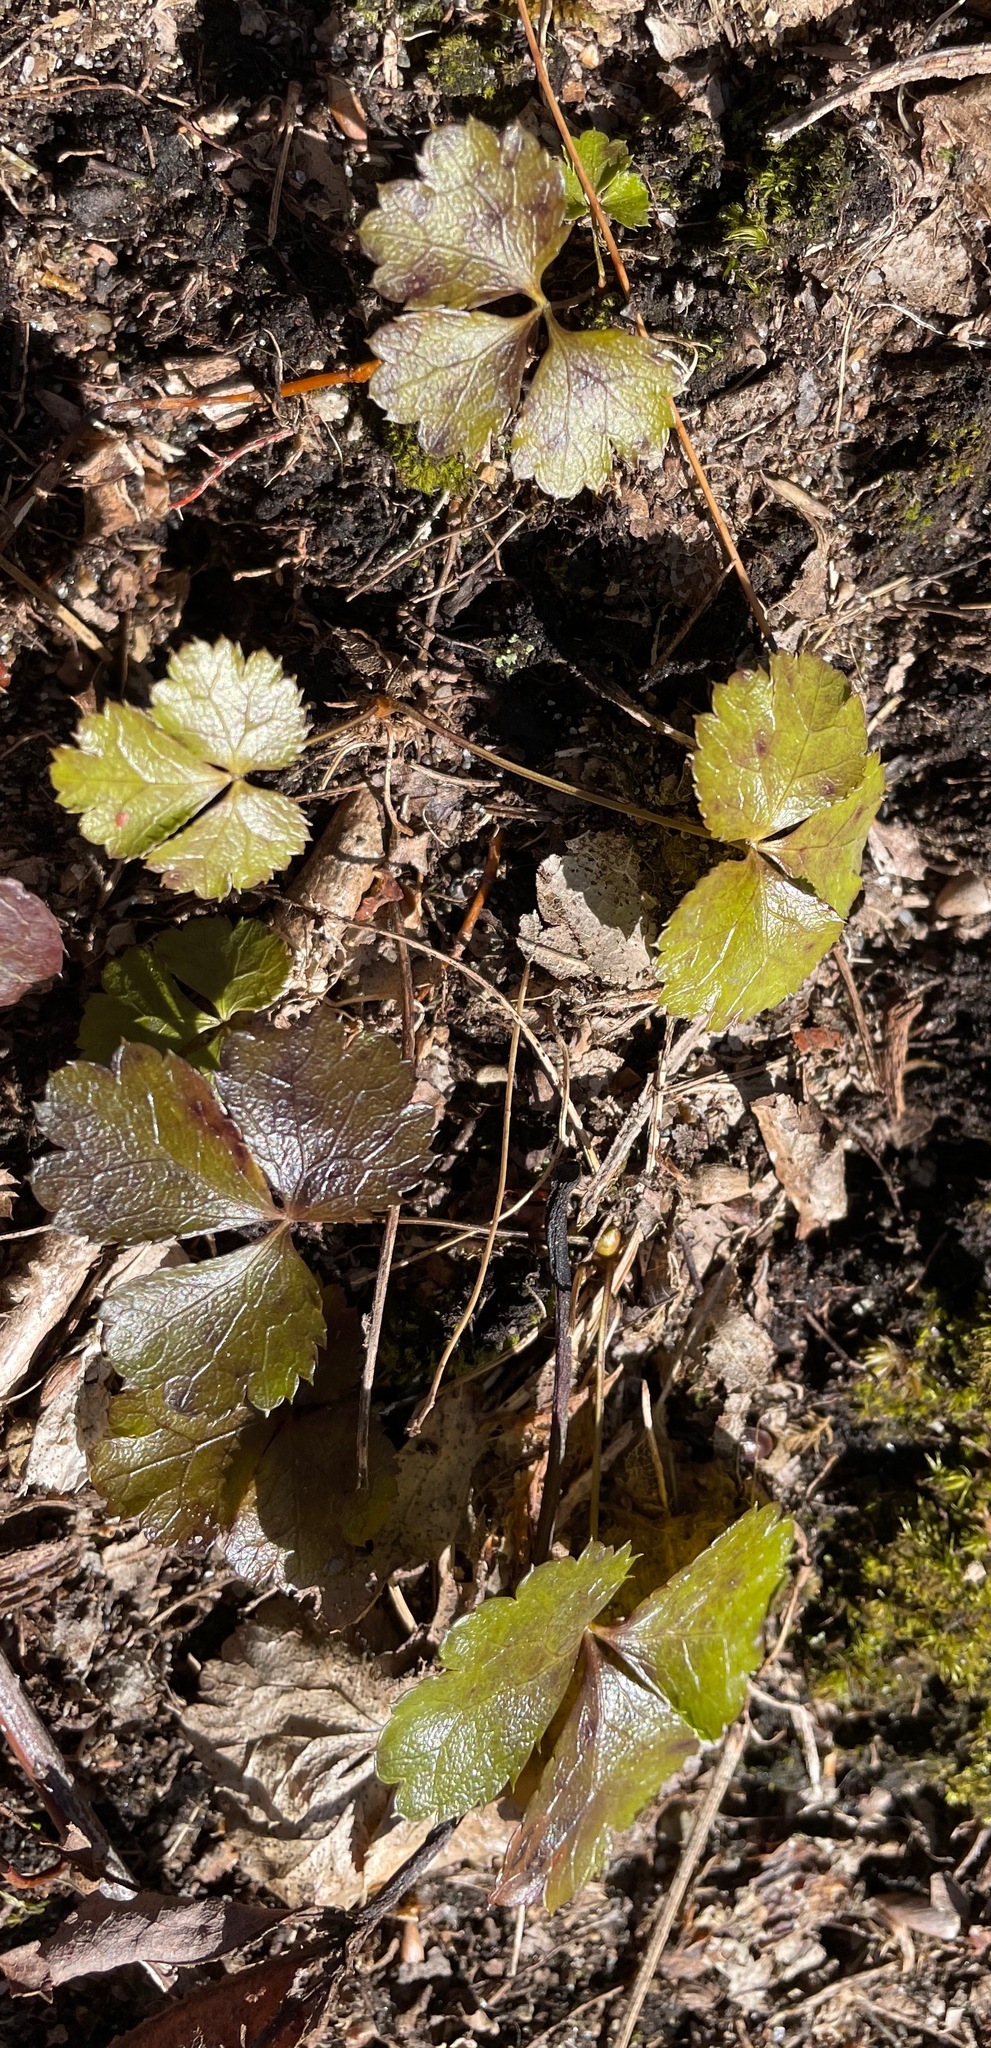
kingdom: Plantae
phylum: Tracheophyta
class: Magnoliopsida
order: Ranunculales
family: Ranunculaceae
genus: Coptis
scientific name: Coptis trifolia
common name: Canker-root
